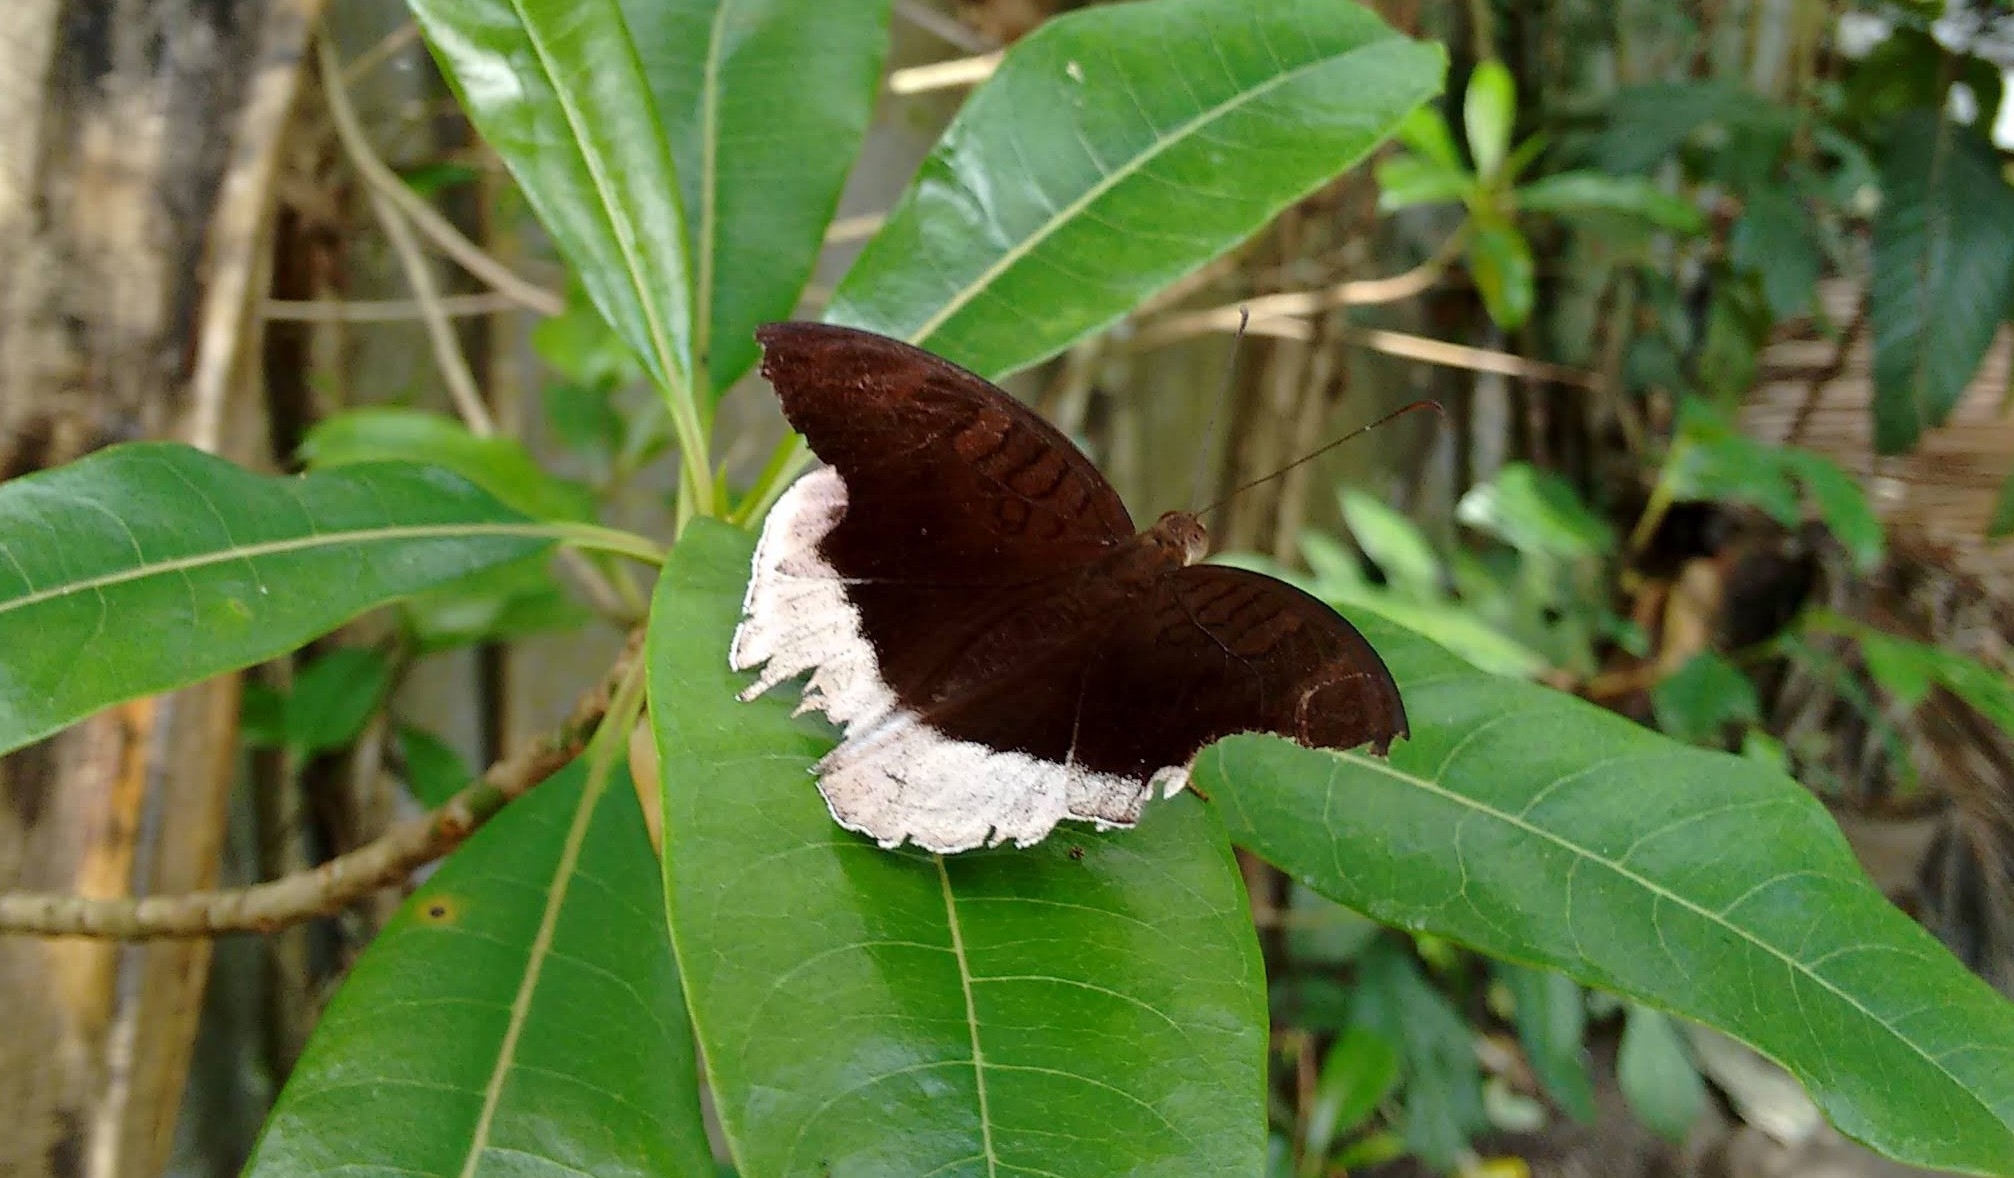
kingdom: Animalia
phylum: Arthropoda
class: Insecta
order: Lepidoptera
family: Nymphalidae
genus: Tanaecia
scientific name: Tanaecia lepidea
